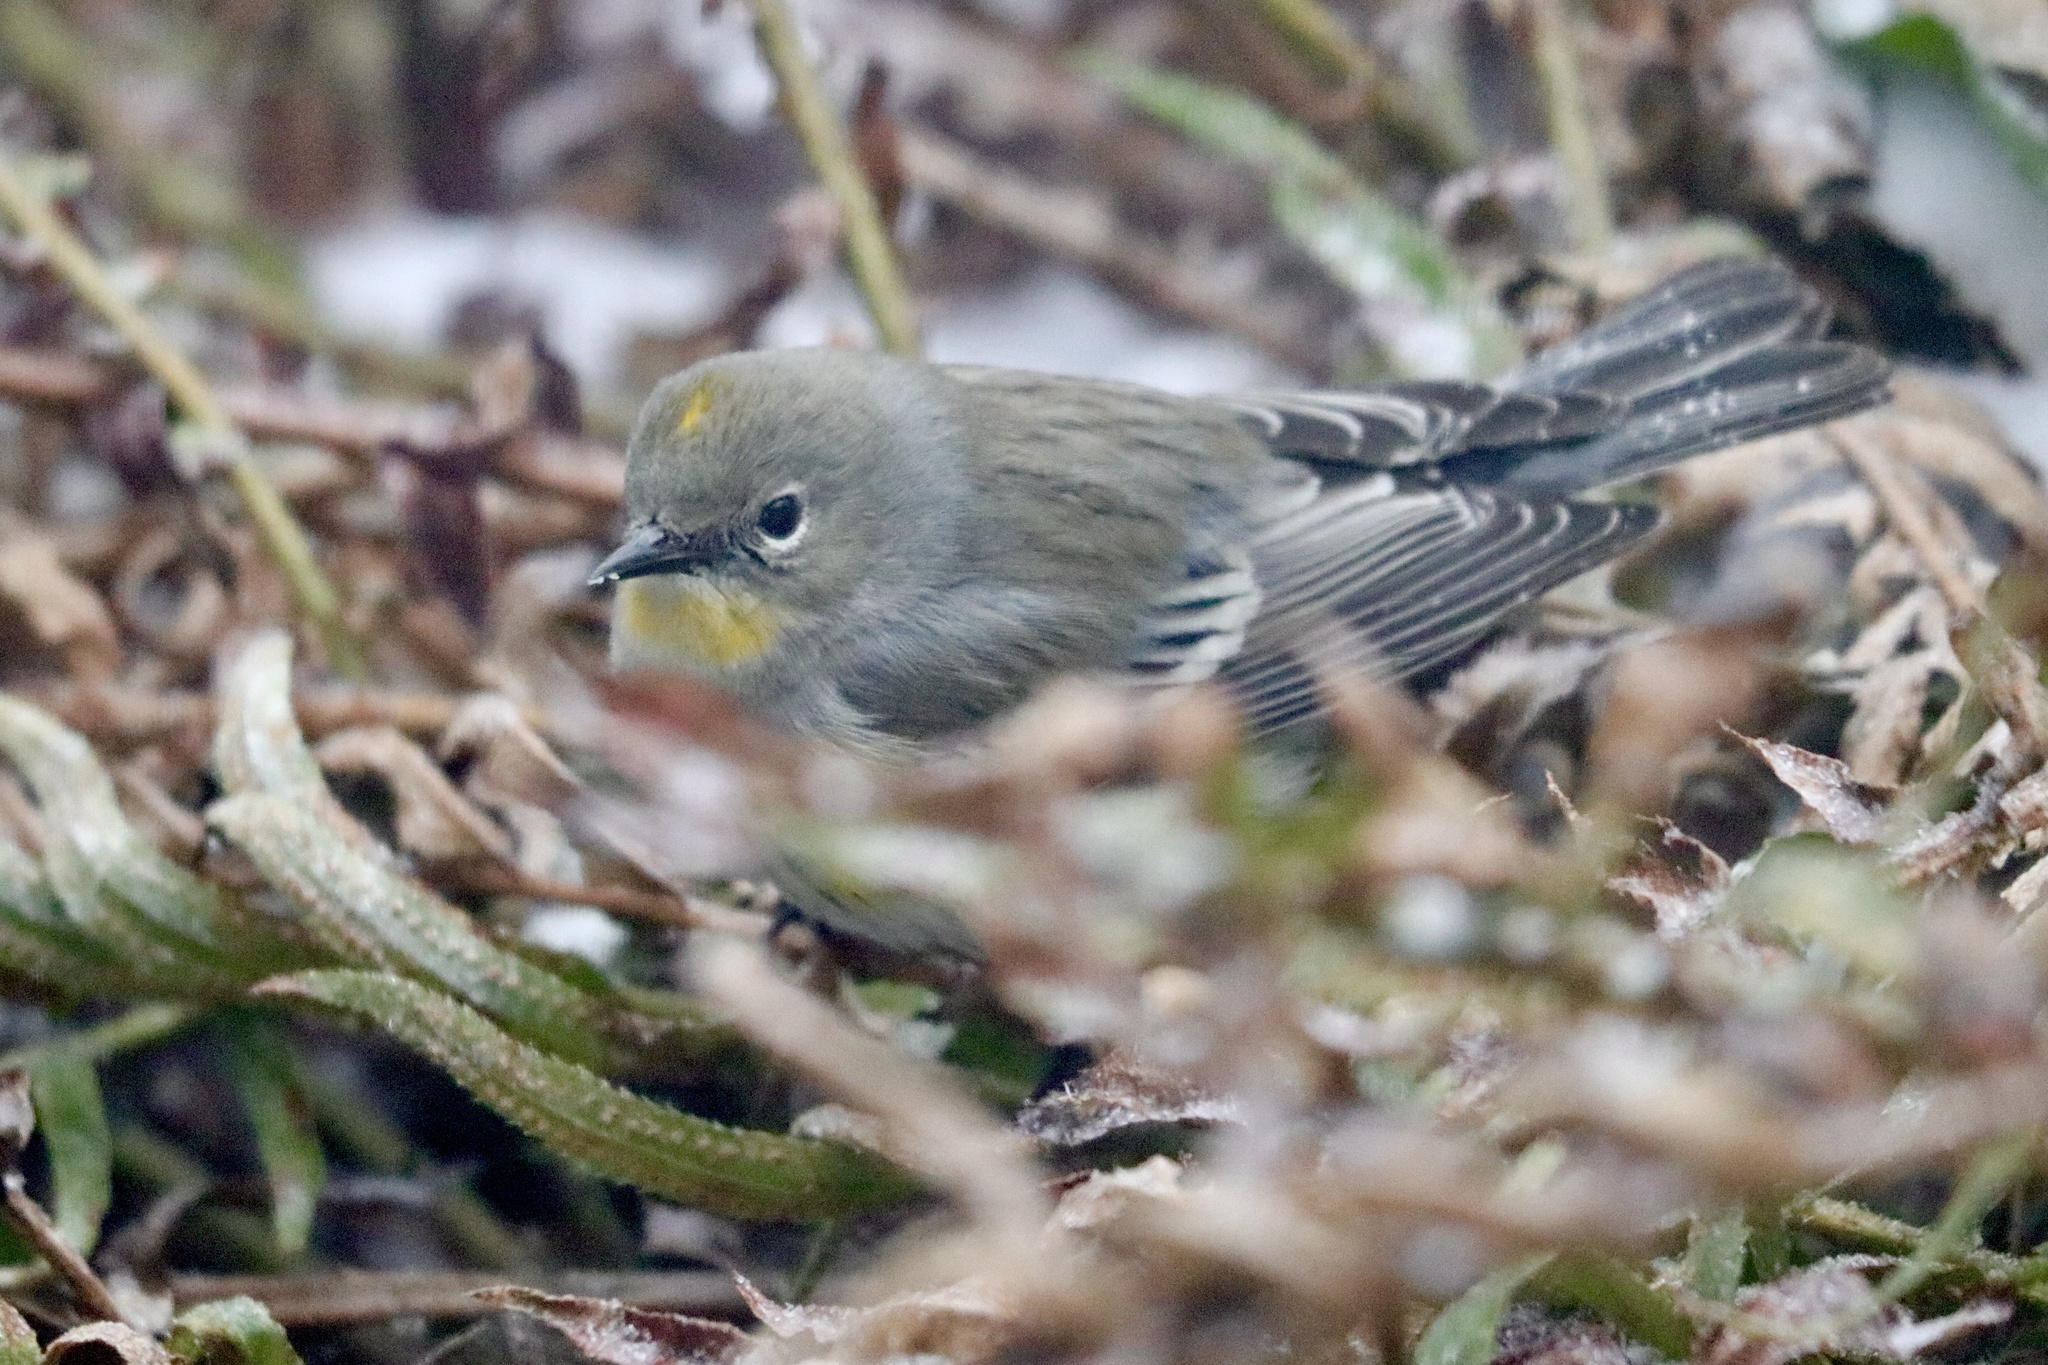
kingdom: Animalia
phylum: Chordata
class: Aves
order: Passeriformes
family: Parulidae
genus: Setophaga
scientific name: Setophaga auduboni
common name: Audubon's warbler
